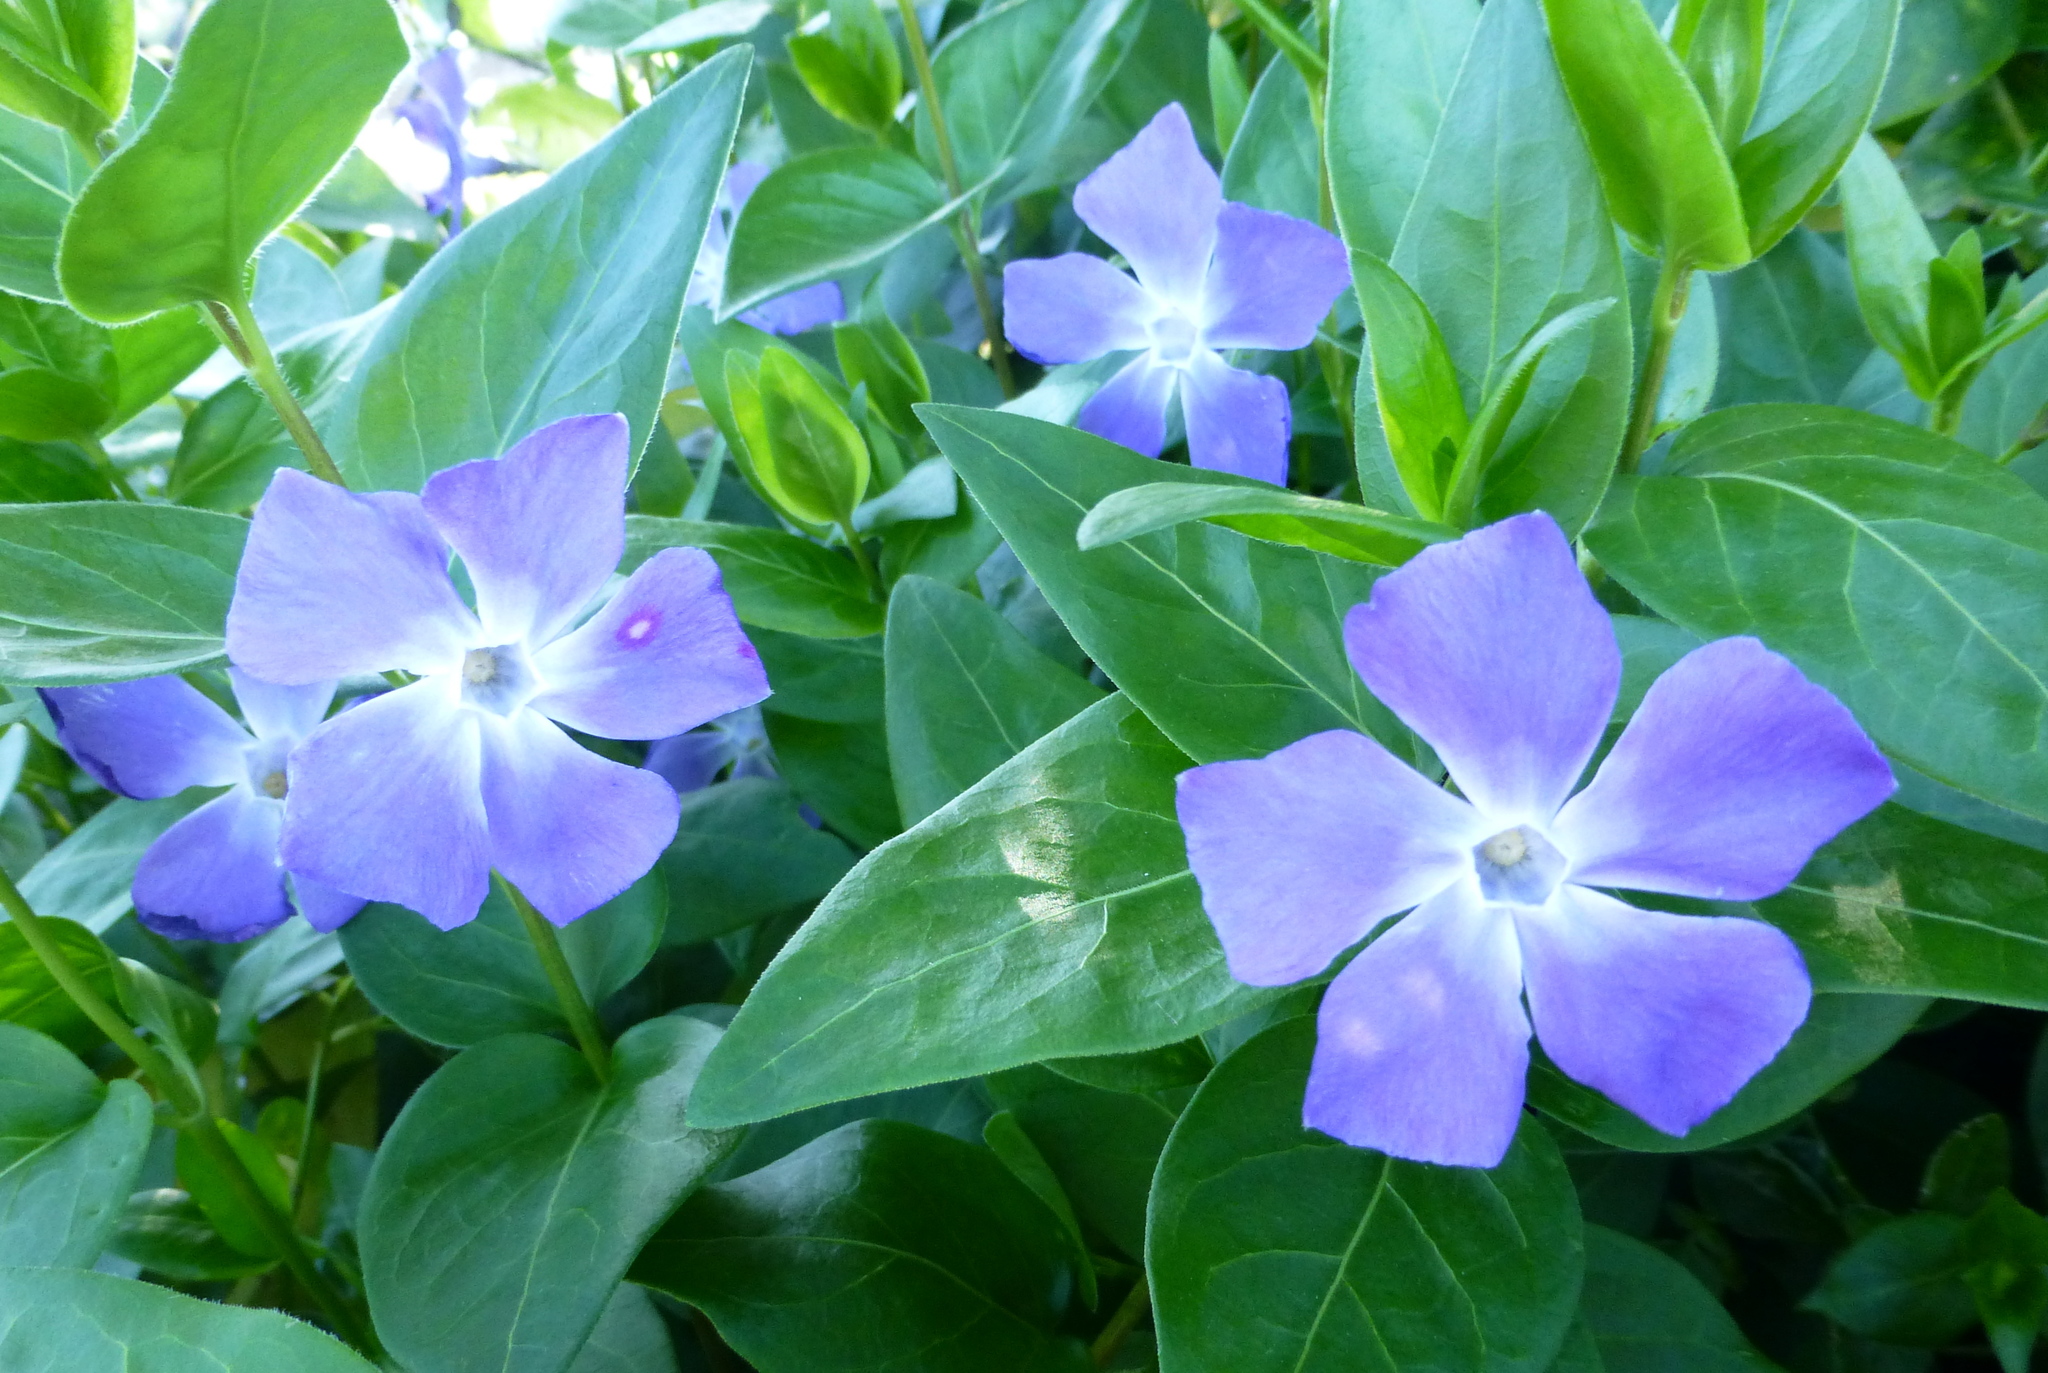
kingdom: Plantae
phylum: Tracheophyta
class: Magnoliopsida
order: Gentianales
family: Apocynaceae
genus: Vinca
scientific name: Vinca major
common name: Greater periwinkle
